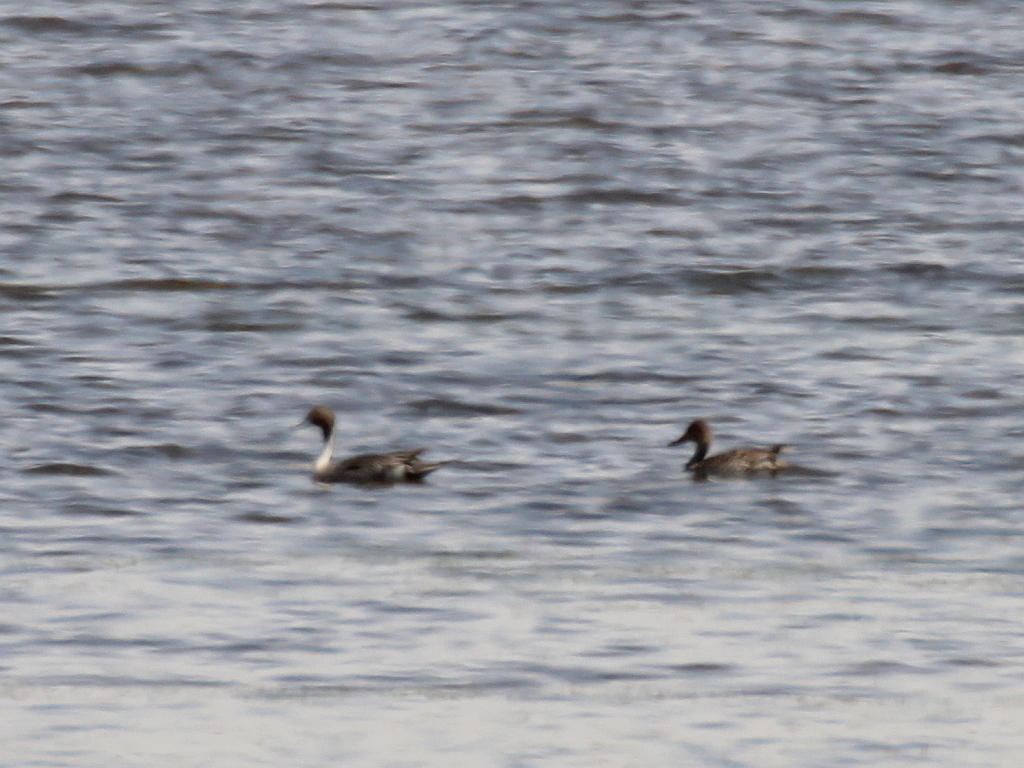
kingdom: Animalia
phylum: Chordata
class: Aves
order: Anseriformes
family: Anatidae
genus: Anas
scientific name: Anas acuta
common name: Northern pintail
